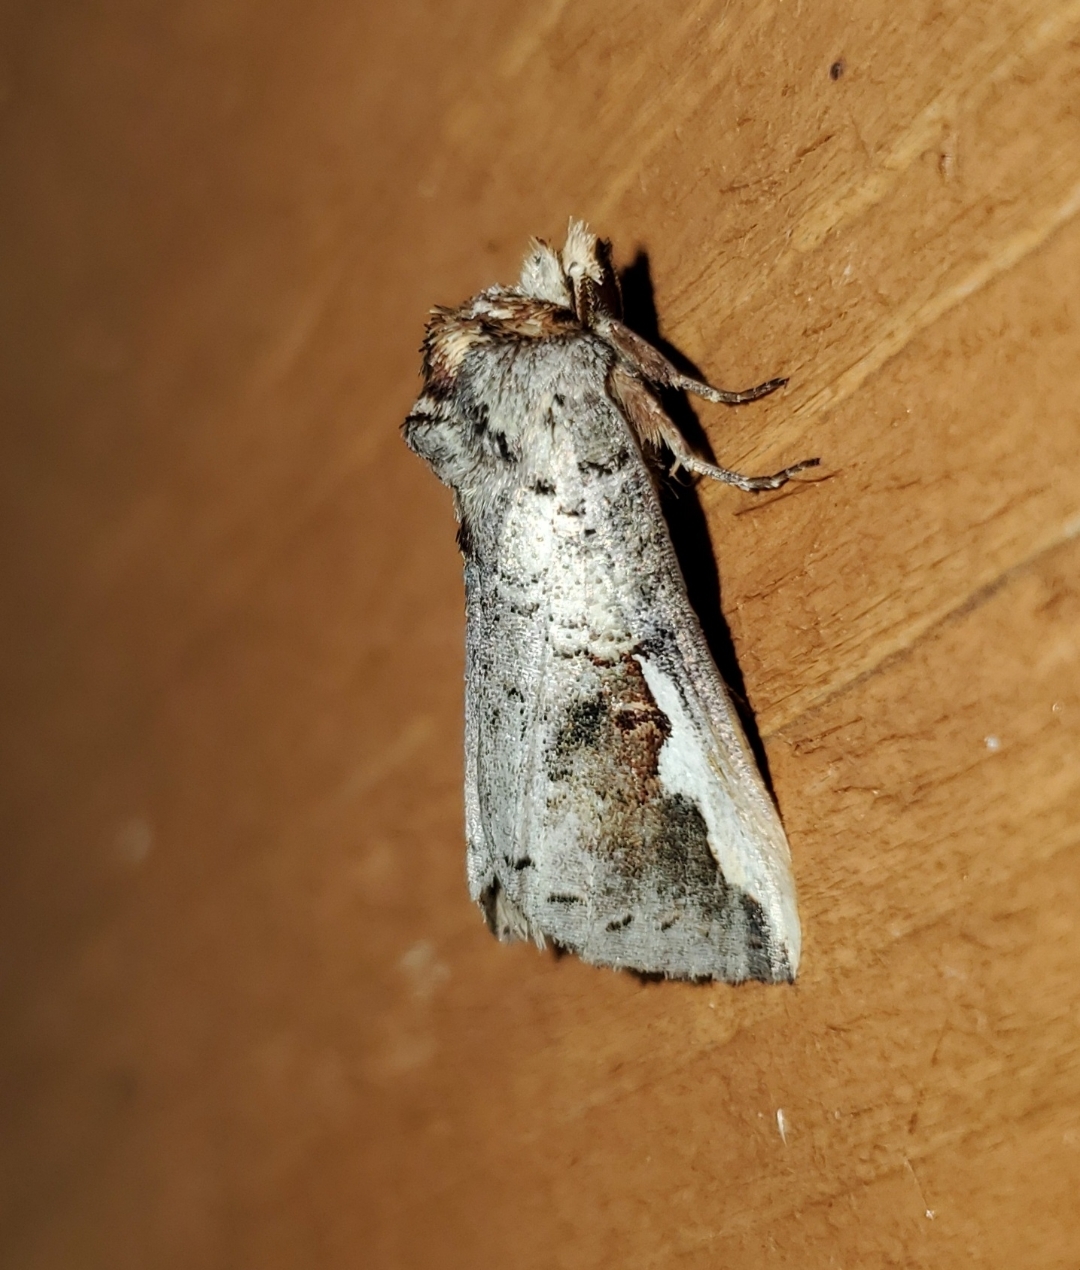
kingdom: Animalia
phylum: Arthropoda
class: Insecta
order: Lepidoptera
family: Notodontidae
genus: Symmerista
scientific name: Symmerista albifrons
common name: White-headed prominent
